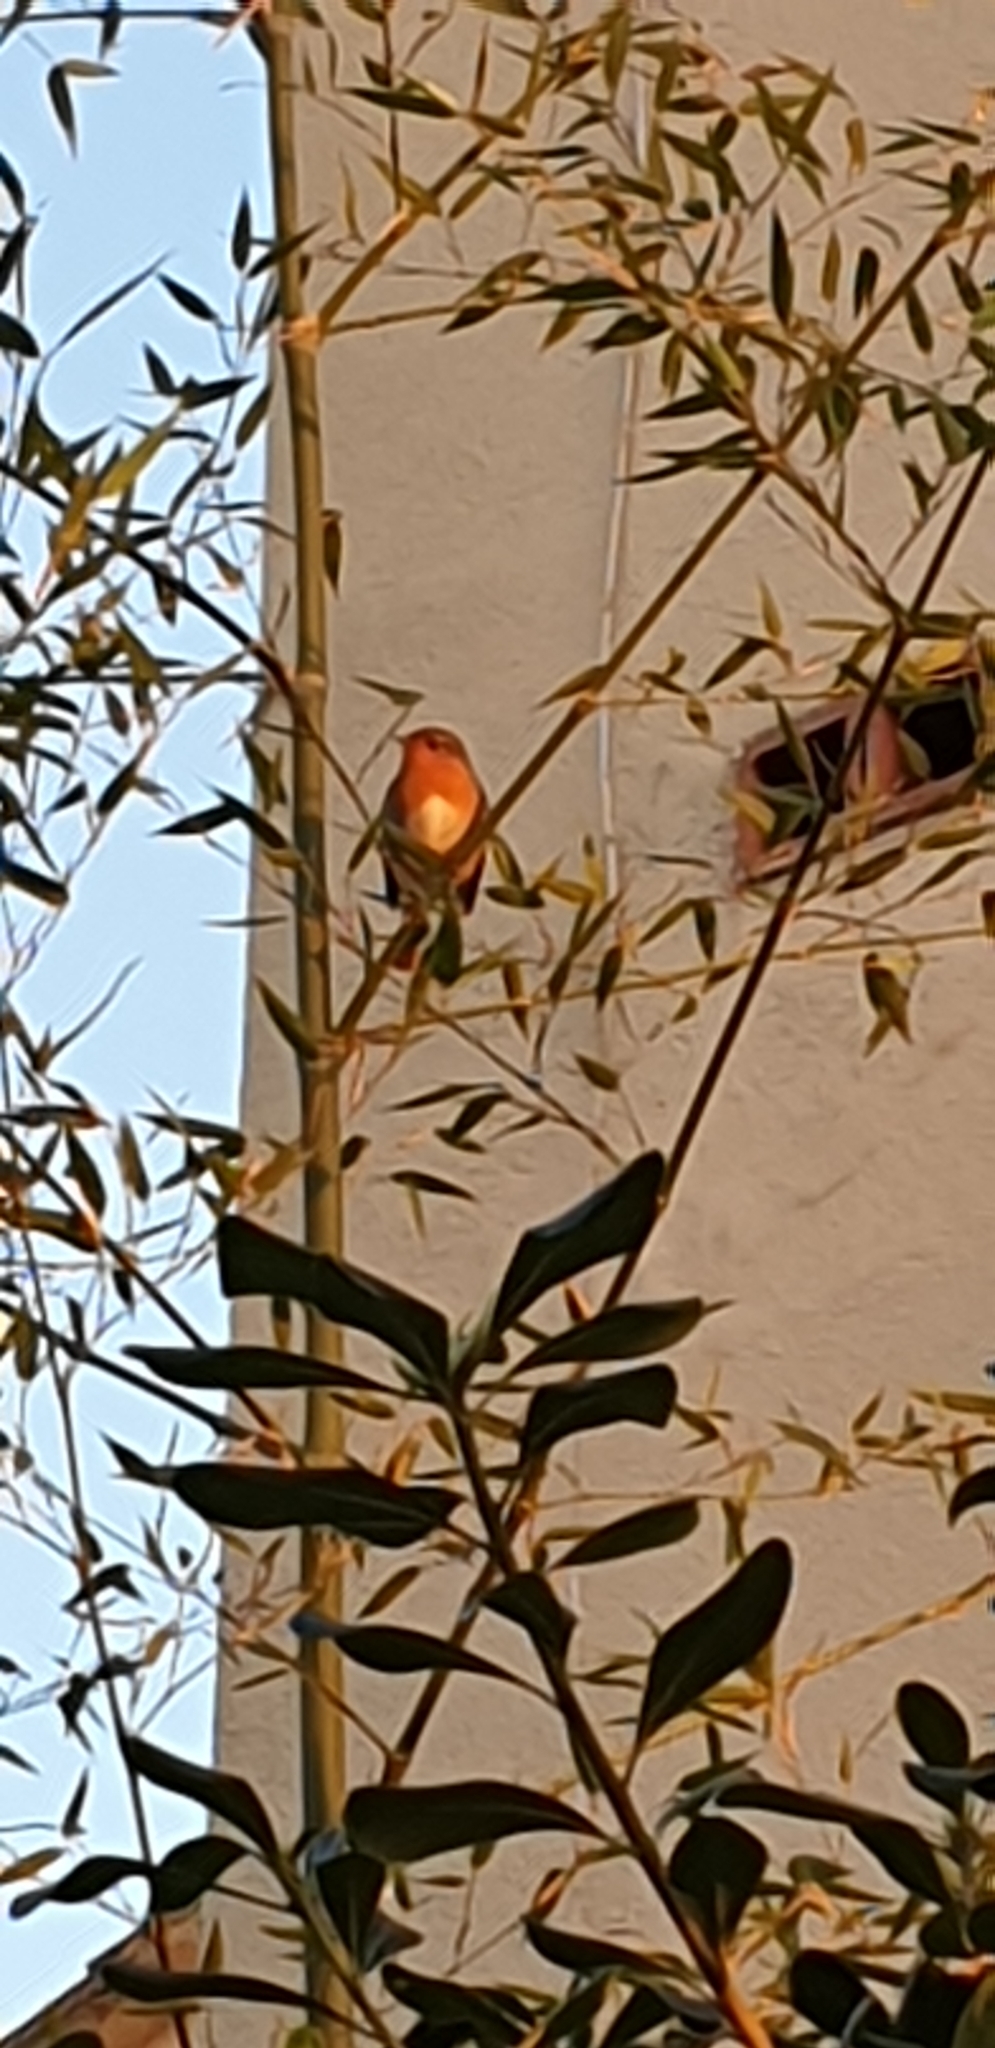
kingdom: Animalia
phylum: Chordata
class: Aves
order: Passeriformes
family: Muscicapidae
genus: Erithacus
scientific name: Erithacus rubecula
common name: European robin
